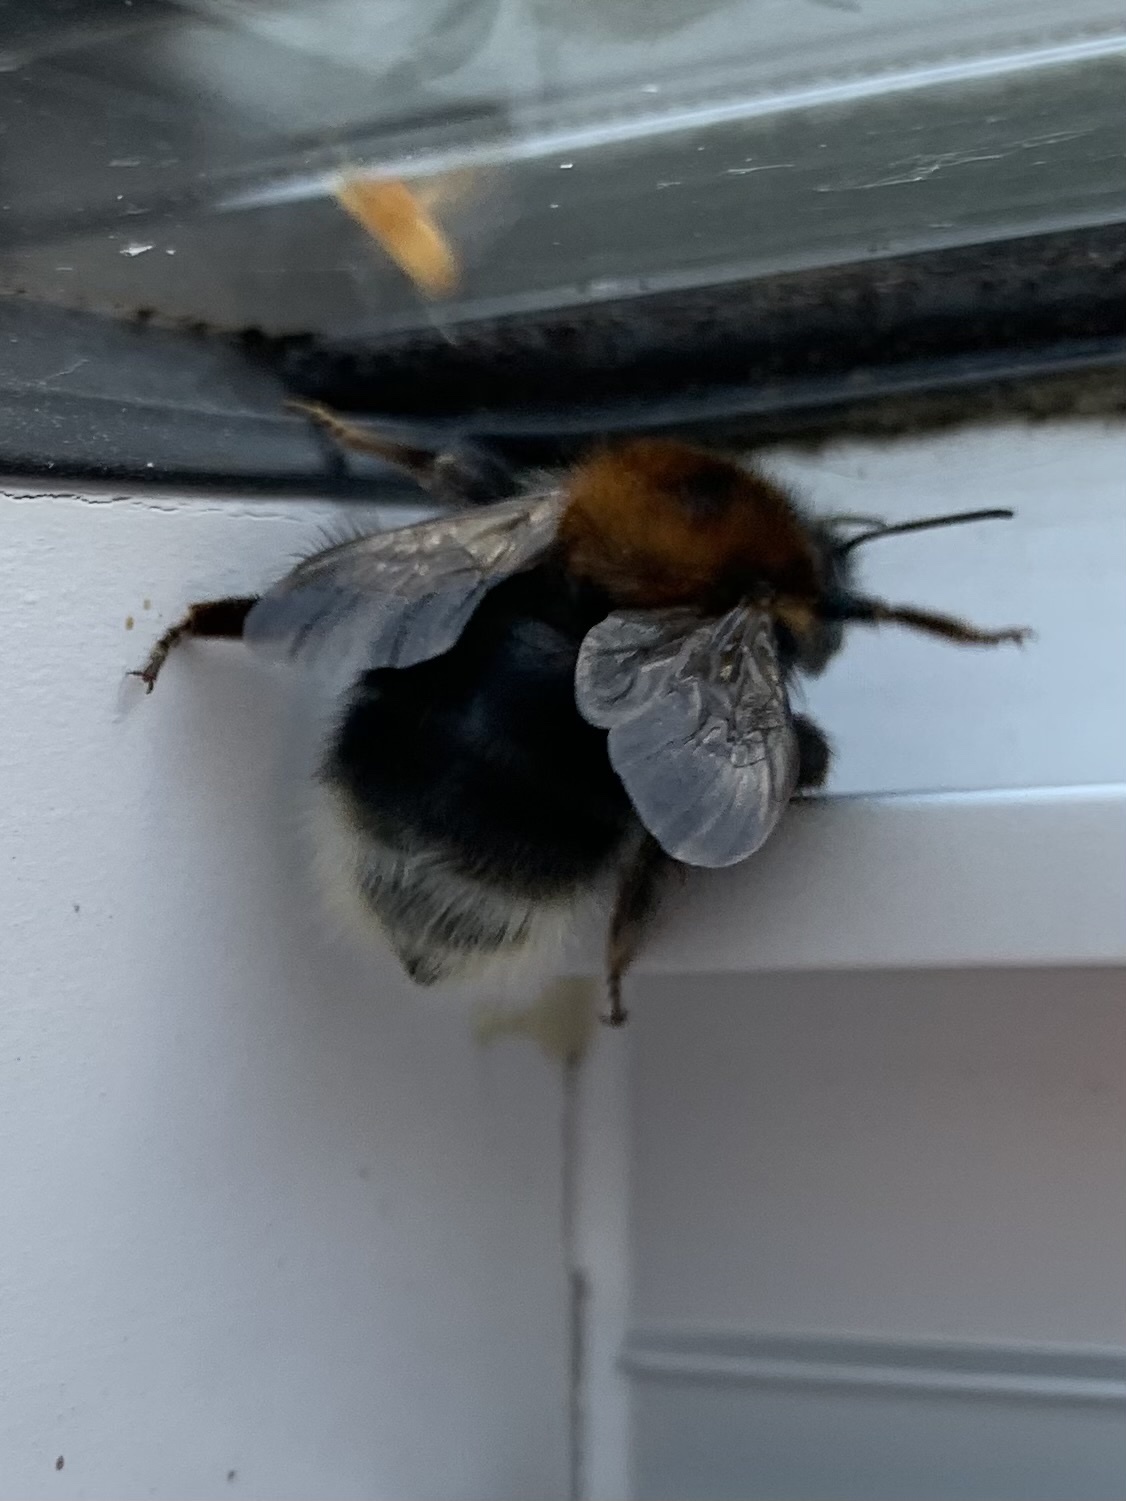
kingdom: Animalia
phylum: Arthropoda
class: Insecta
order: Hymenoptera
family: Apidae
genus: Bombus
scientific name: Bombus hypnorum
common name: New garden bumblebee
